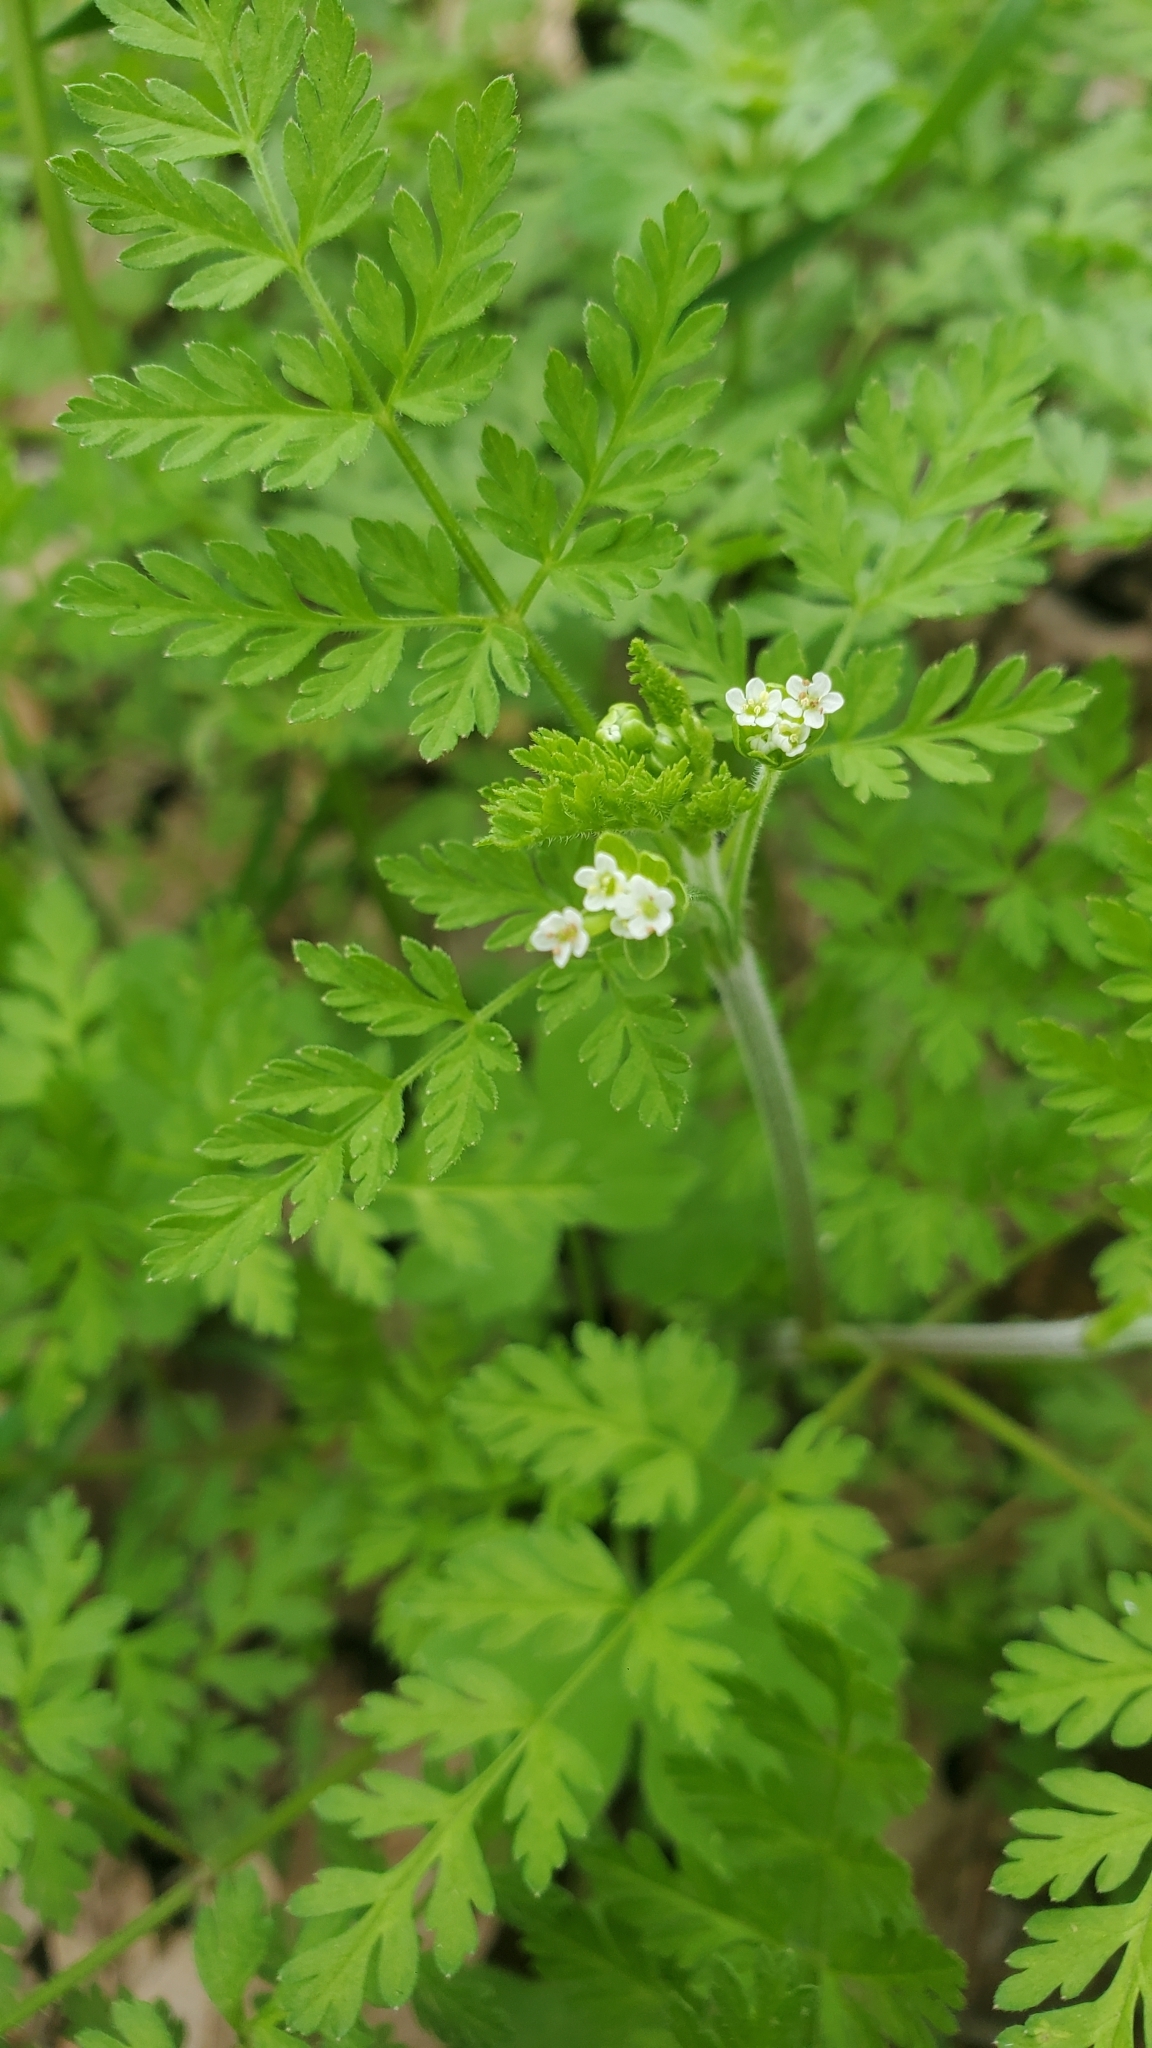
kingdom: Plantae
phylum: Tracheophyta
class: Magnoliopsida
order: Apiales
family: Apiaceae
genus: Chaerophyllum
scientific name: Chaerophyllum tainturieri
